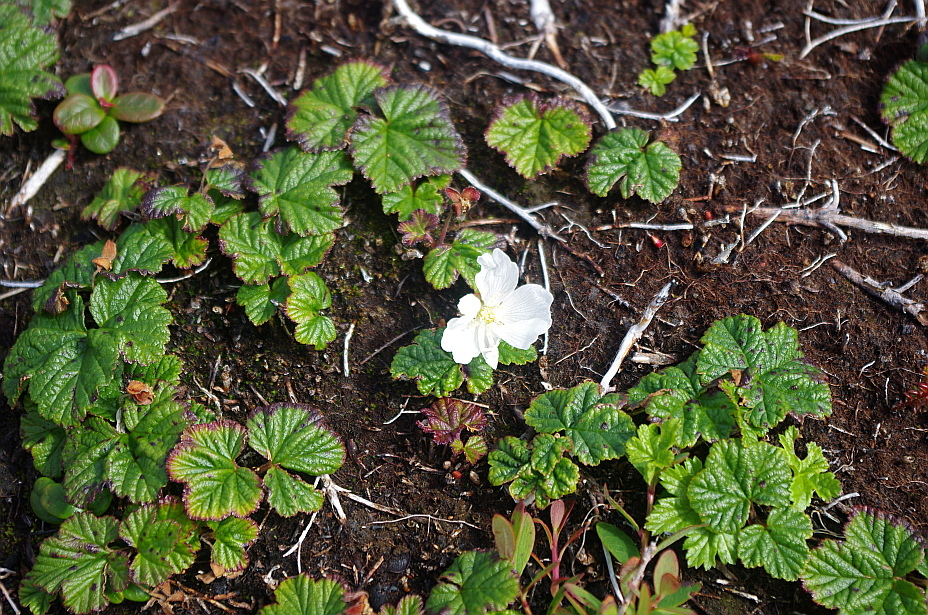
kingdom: Plantae
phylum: Tracheophyta
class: Magnoliopsida
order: Rosales
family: Rosaceae
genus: Rubus
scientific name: Rubus chamaemorus
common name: Cloudberry
